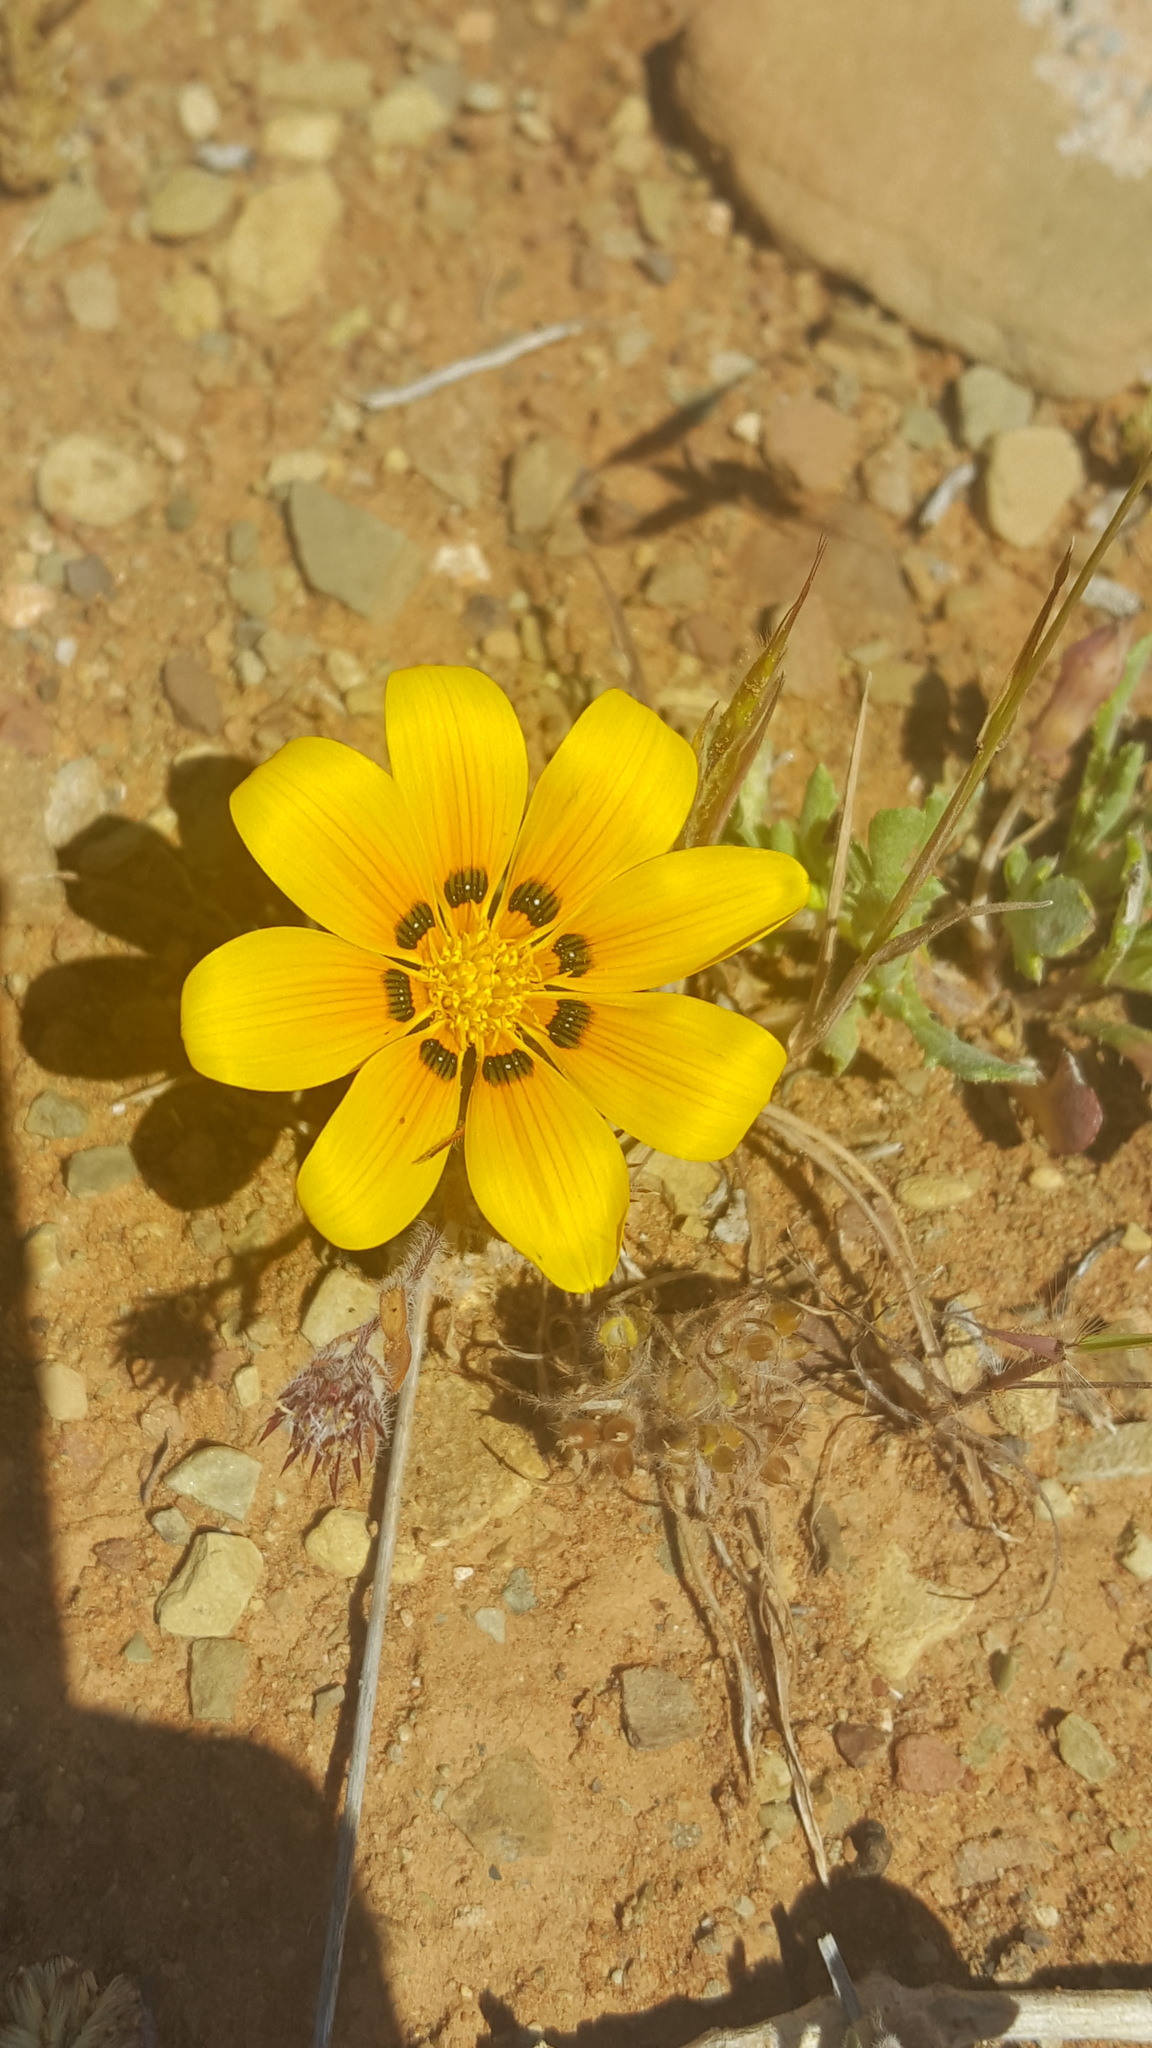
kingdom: Plantae
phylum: Tracheophyta
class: Magnoliopsida
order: Asterales
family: Asteraceae
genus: Gazania
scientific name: Gazania lichtensteinii
